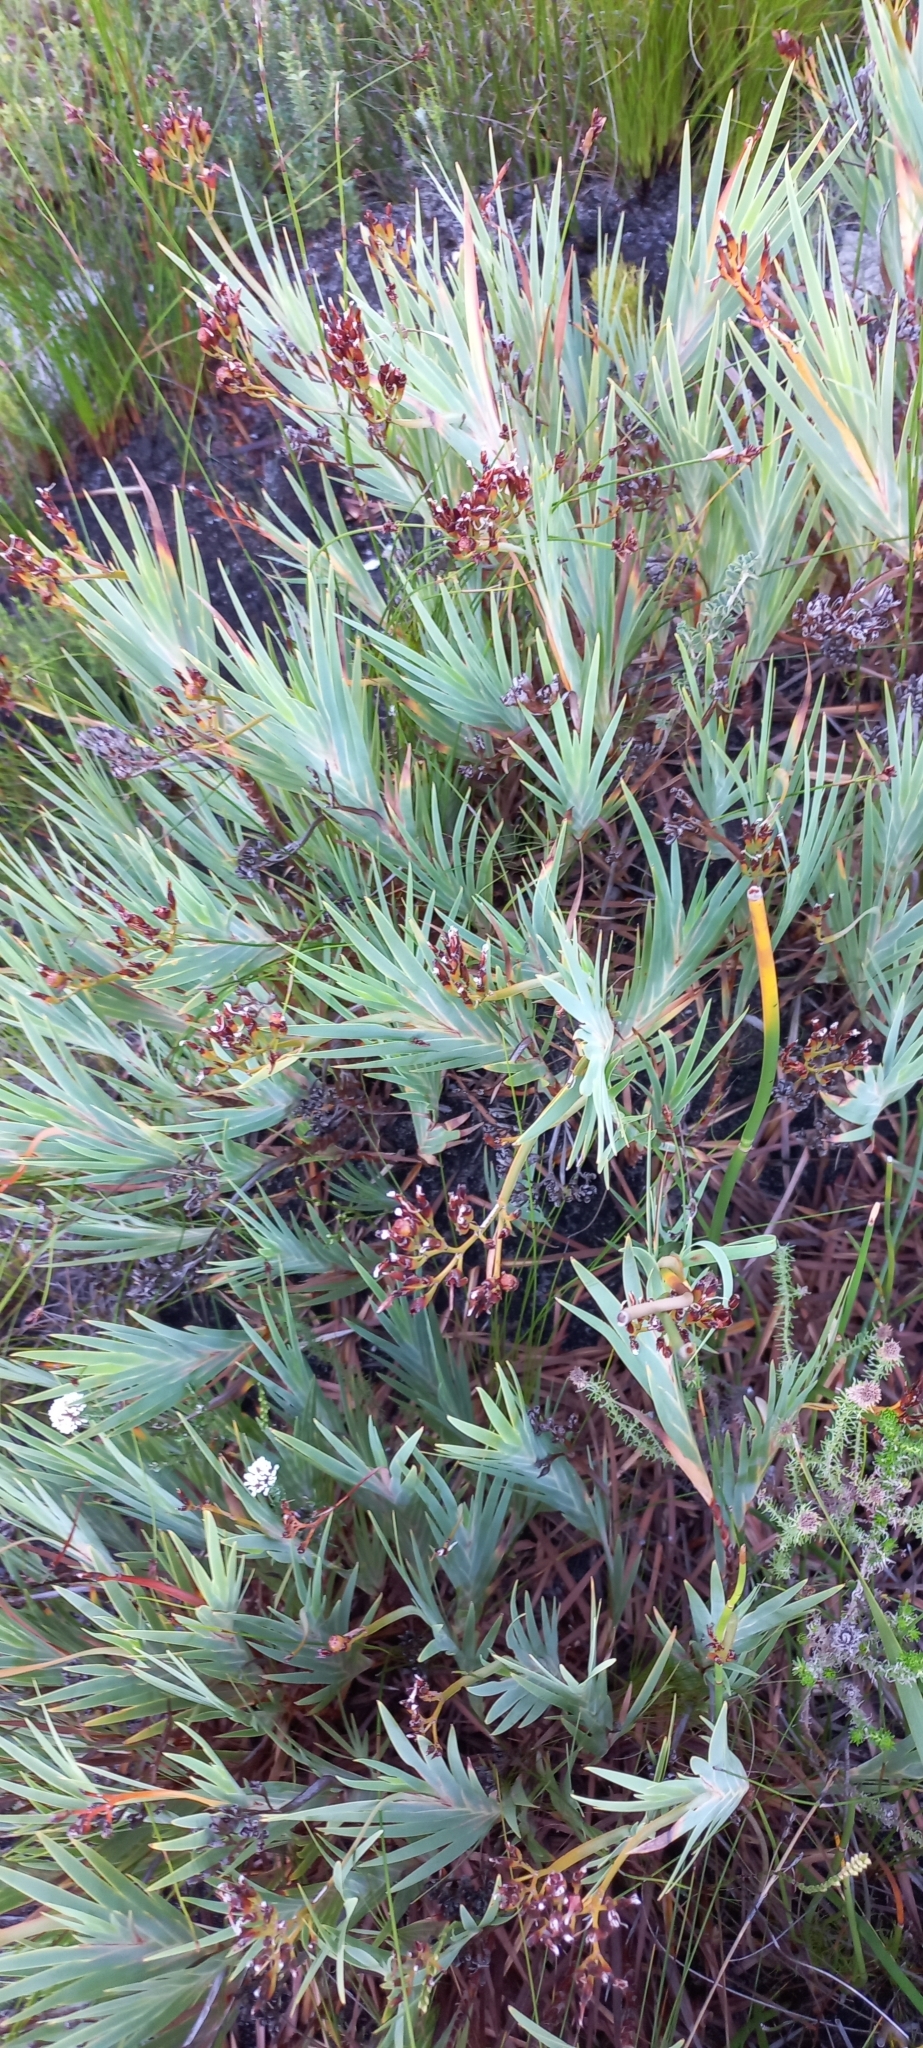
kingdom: Plantae
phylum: Tracheophyta
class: Liliopsida
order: Asparagales
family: Iridaceae
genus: Nivenia
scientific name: Nivenia stokoei
